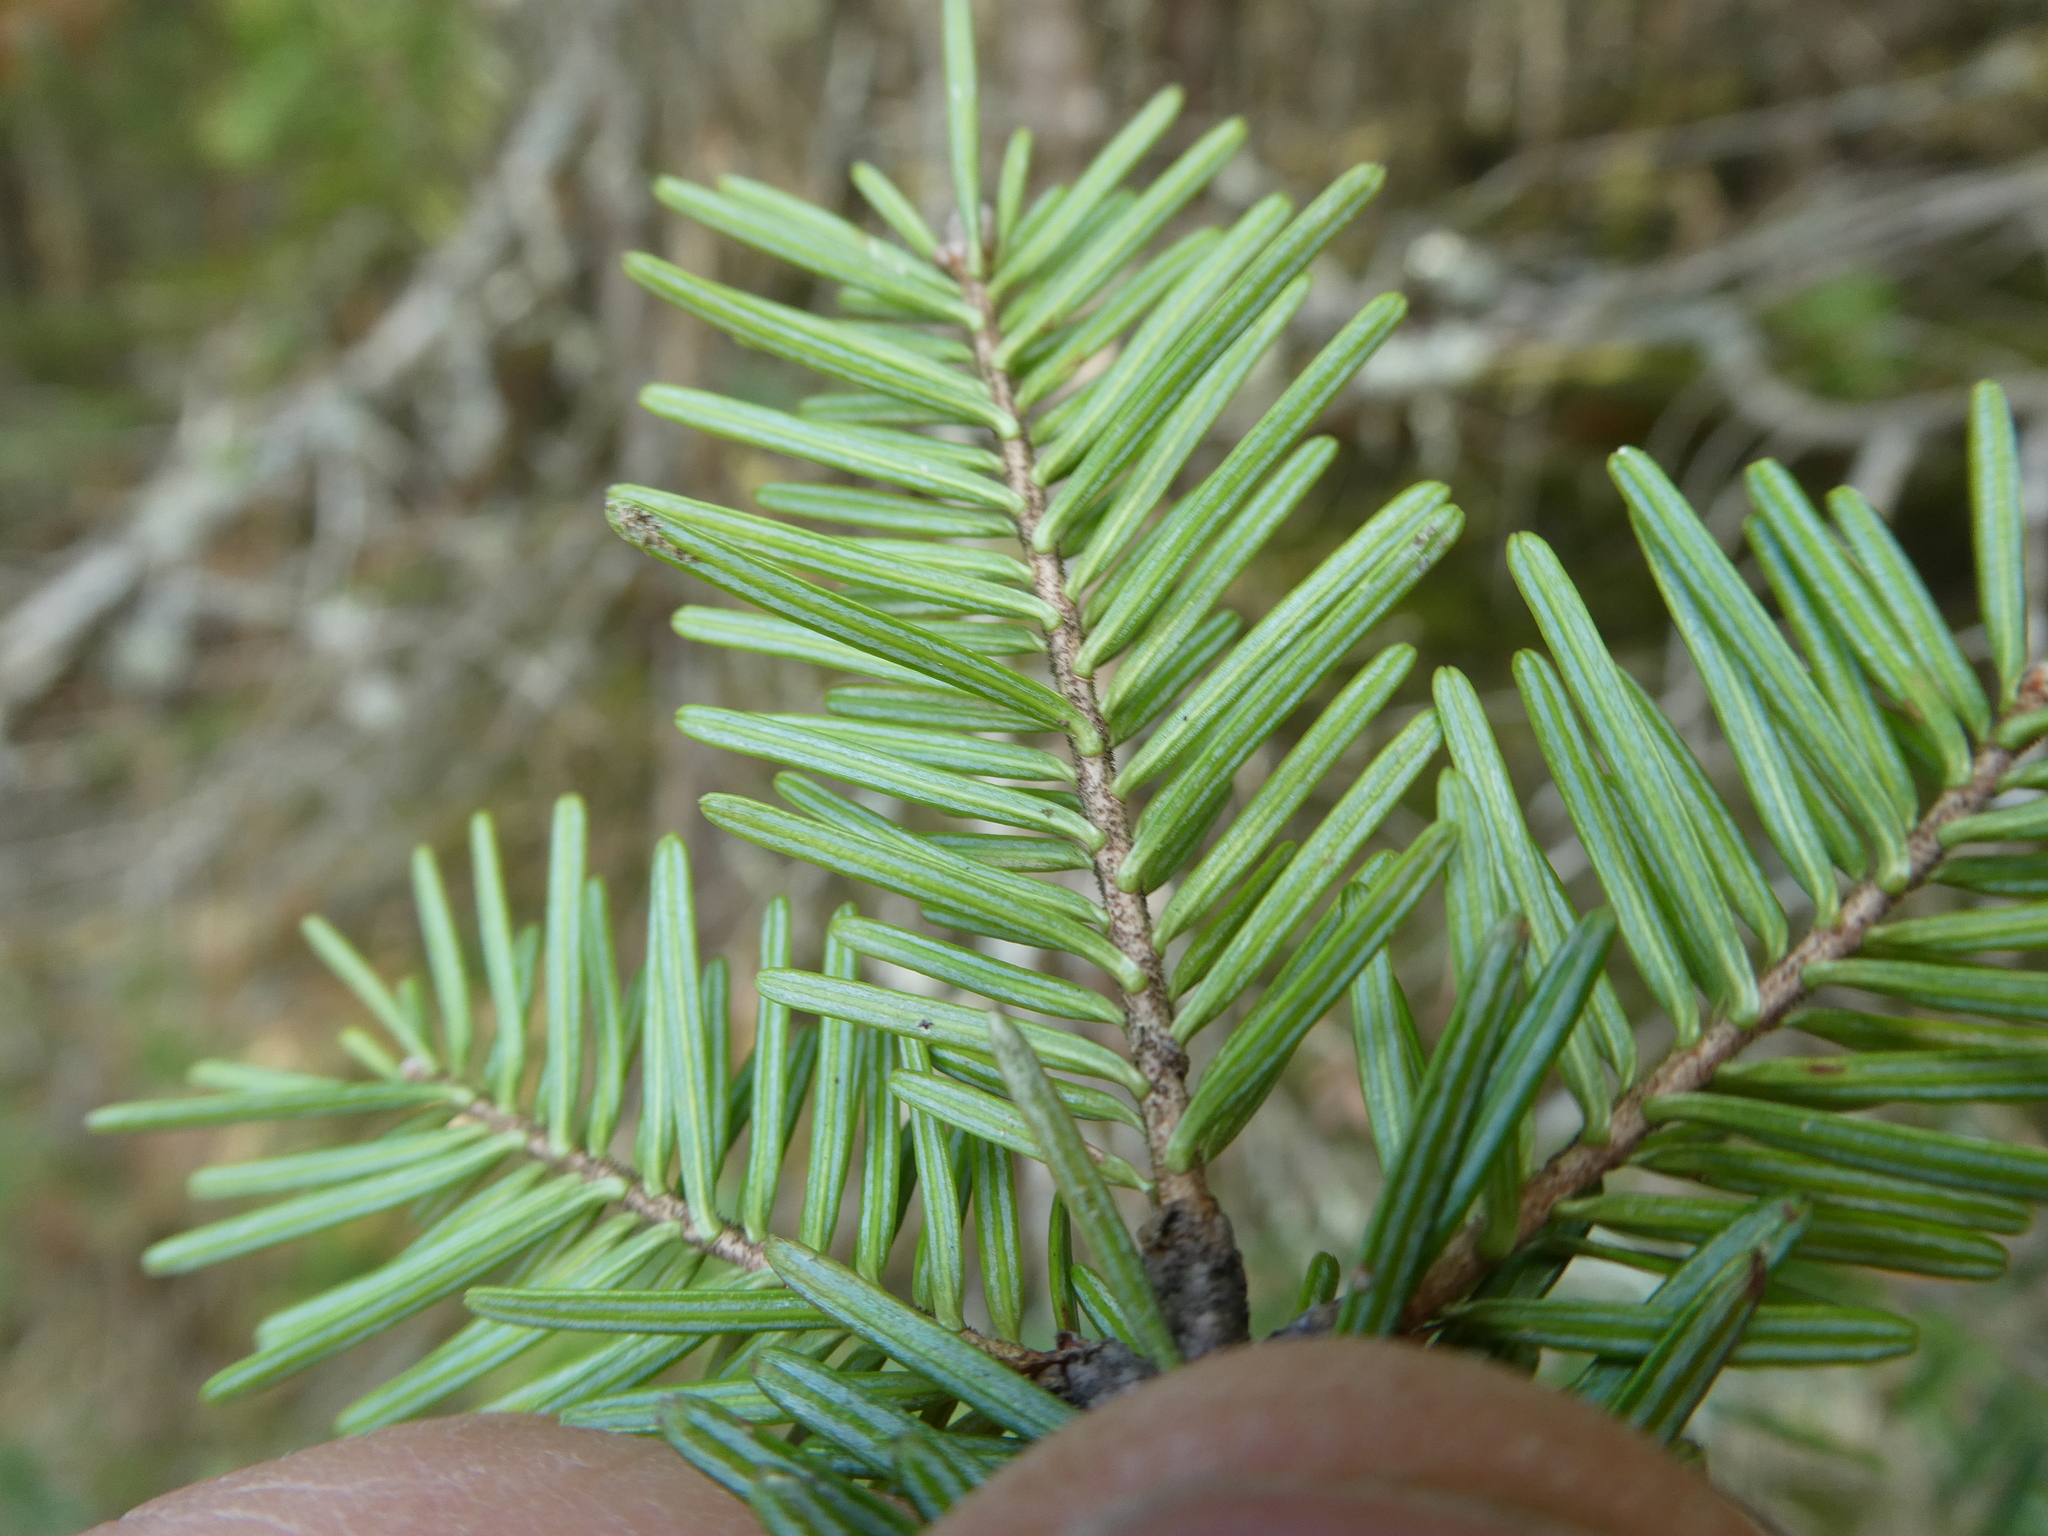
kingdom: Plantae
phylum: Tracheophyta
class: Pinopsida
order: Pinales
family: Pinaceae
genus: Abies
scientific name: Abies balsamea
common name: Balsam fir
